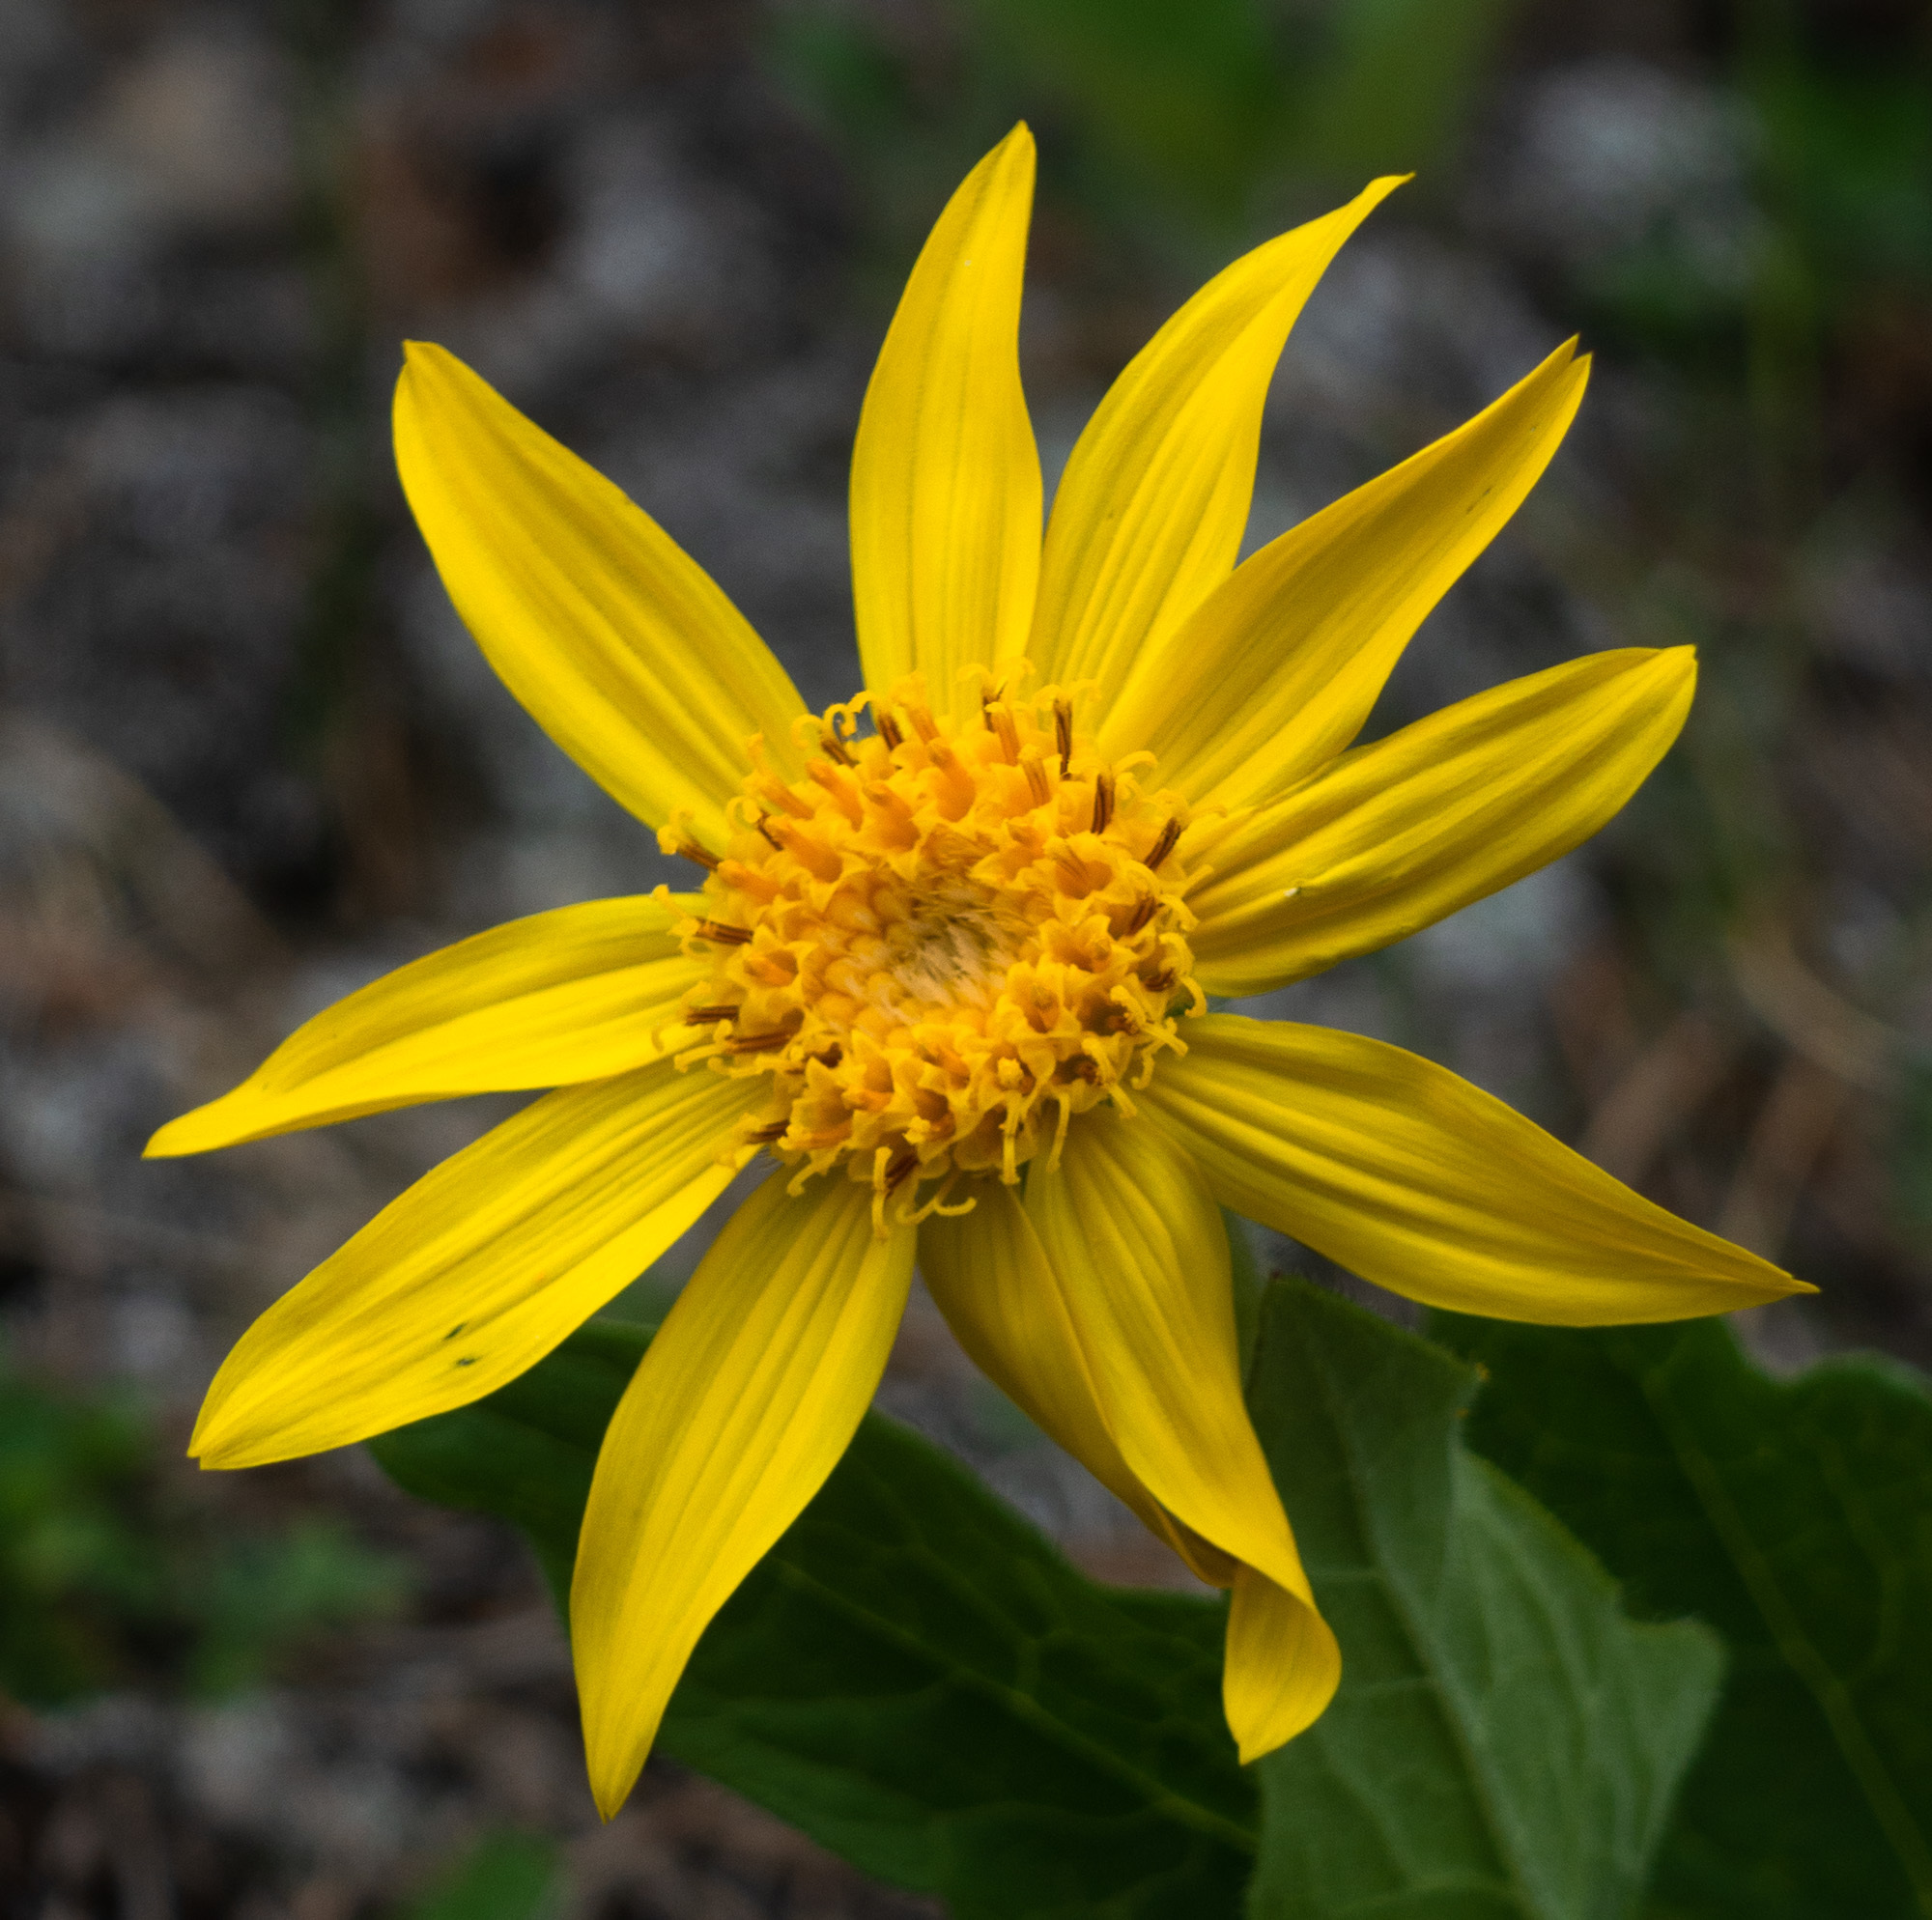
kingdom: Plantae
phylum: Tracheophyta
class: Magnoliopsida
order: Asterales
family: Asteraceae
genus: Arnica
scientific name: Arnica cordifolia
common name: Heart-leaf arnica
